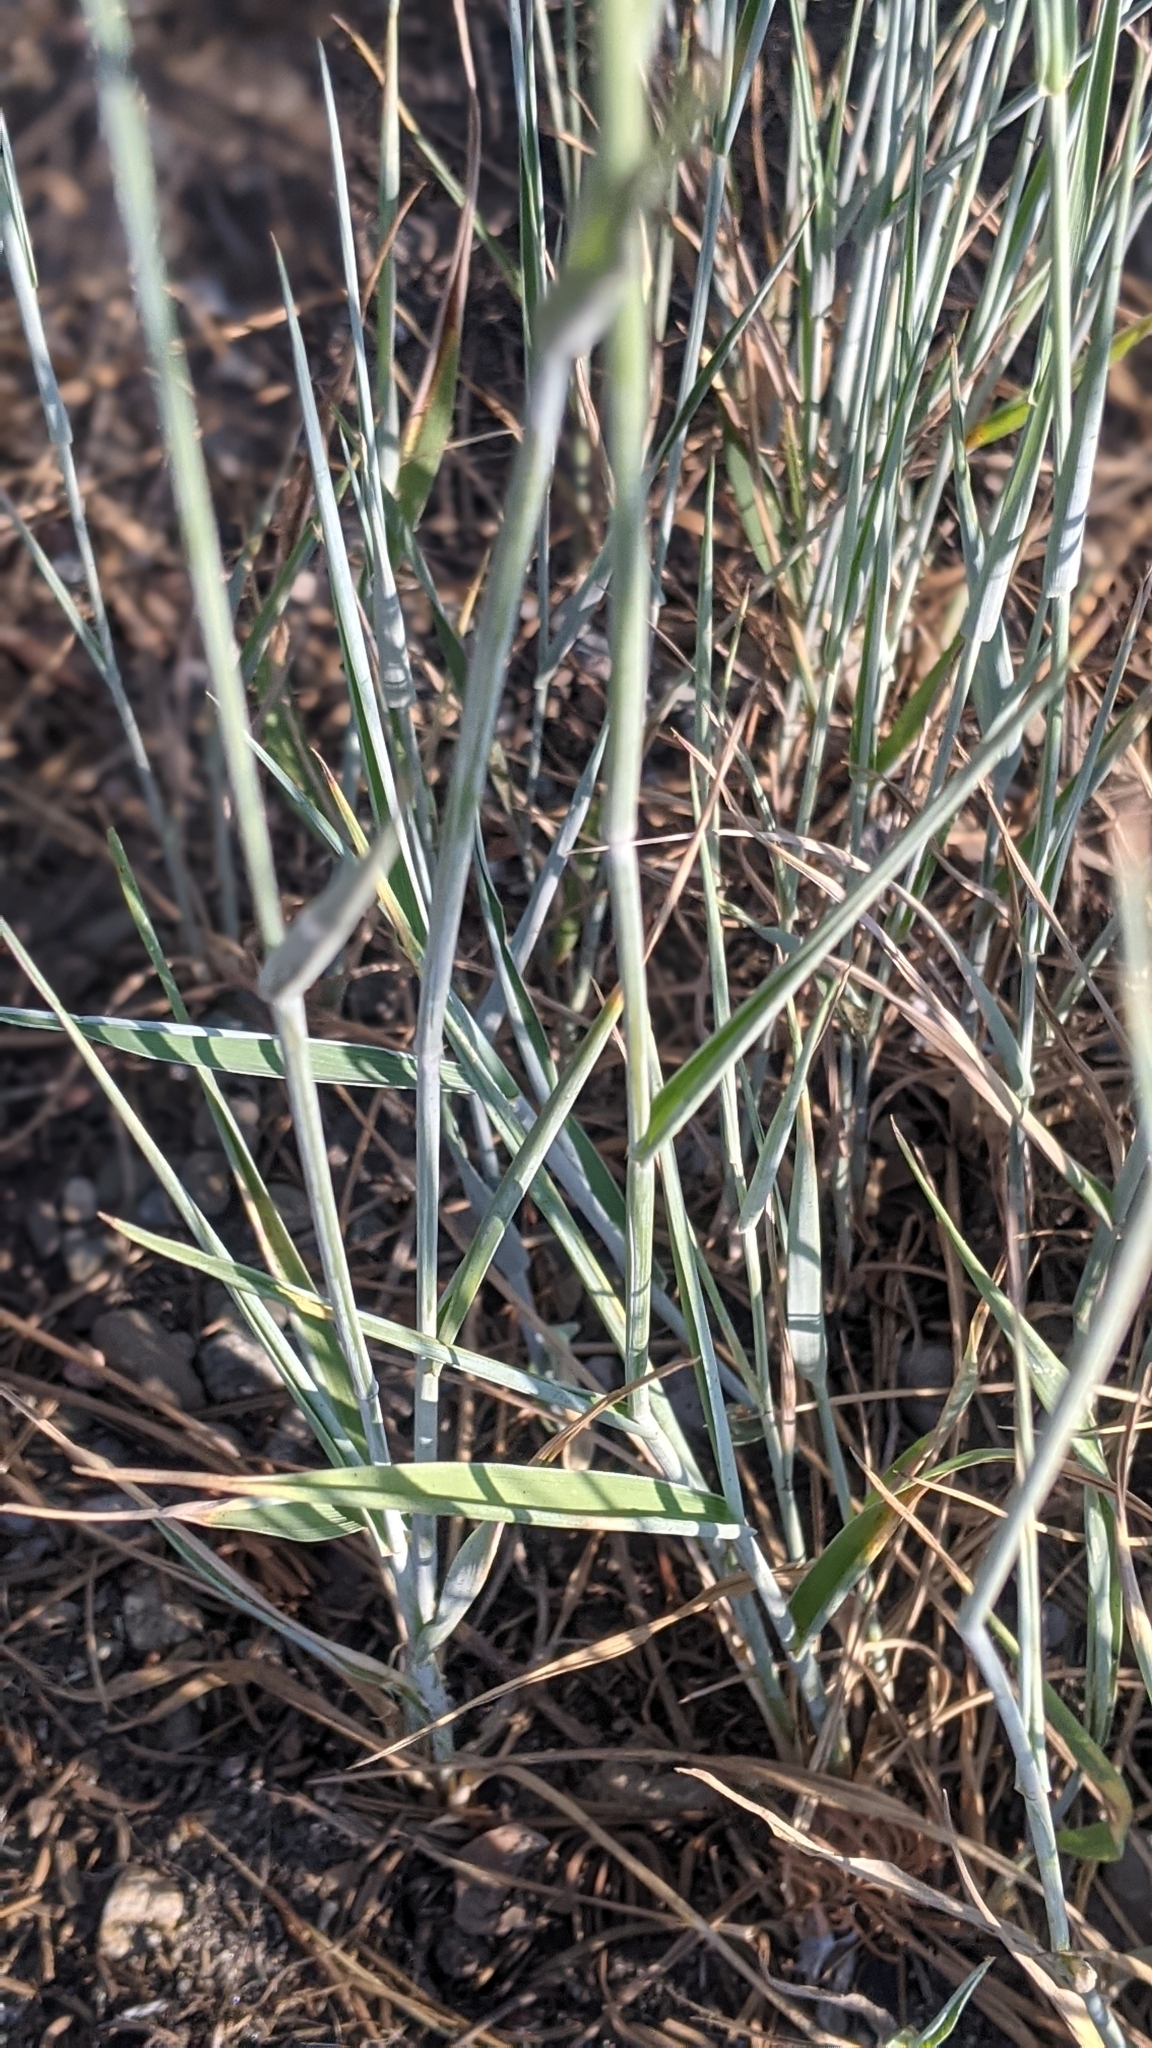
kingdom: Plantae
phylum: Tracheophyta
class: Liliopsida
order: Poales
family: Poaceae
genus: Thinopyrum
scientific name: Thinopyrum intermedium
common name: Intermediate wheatgrass
